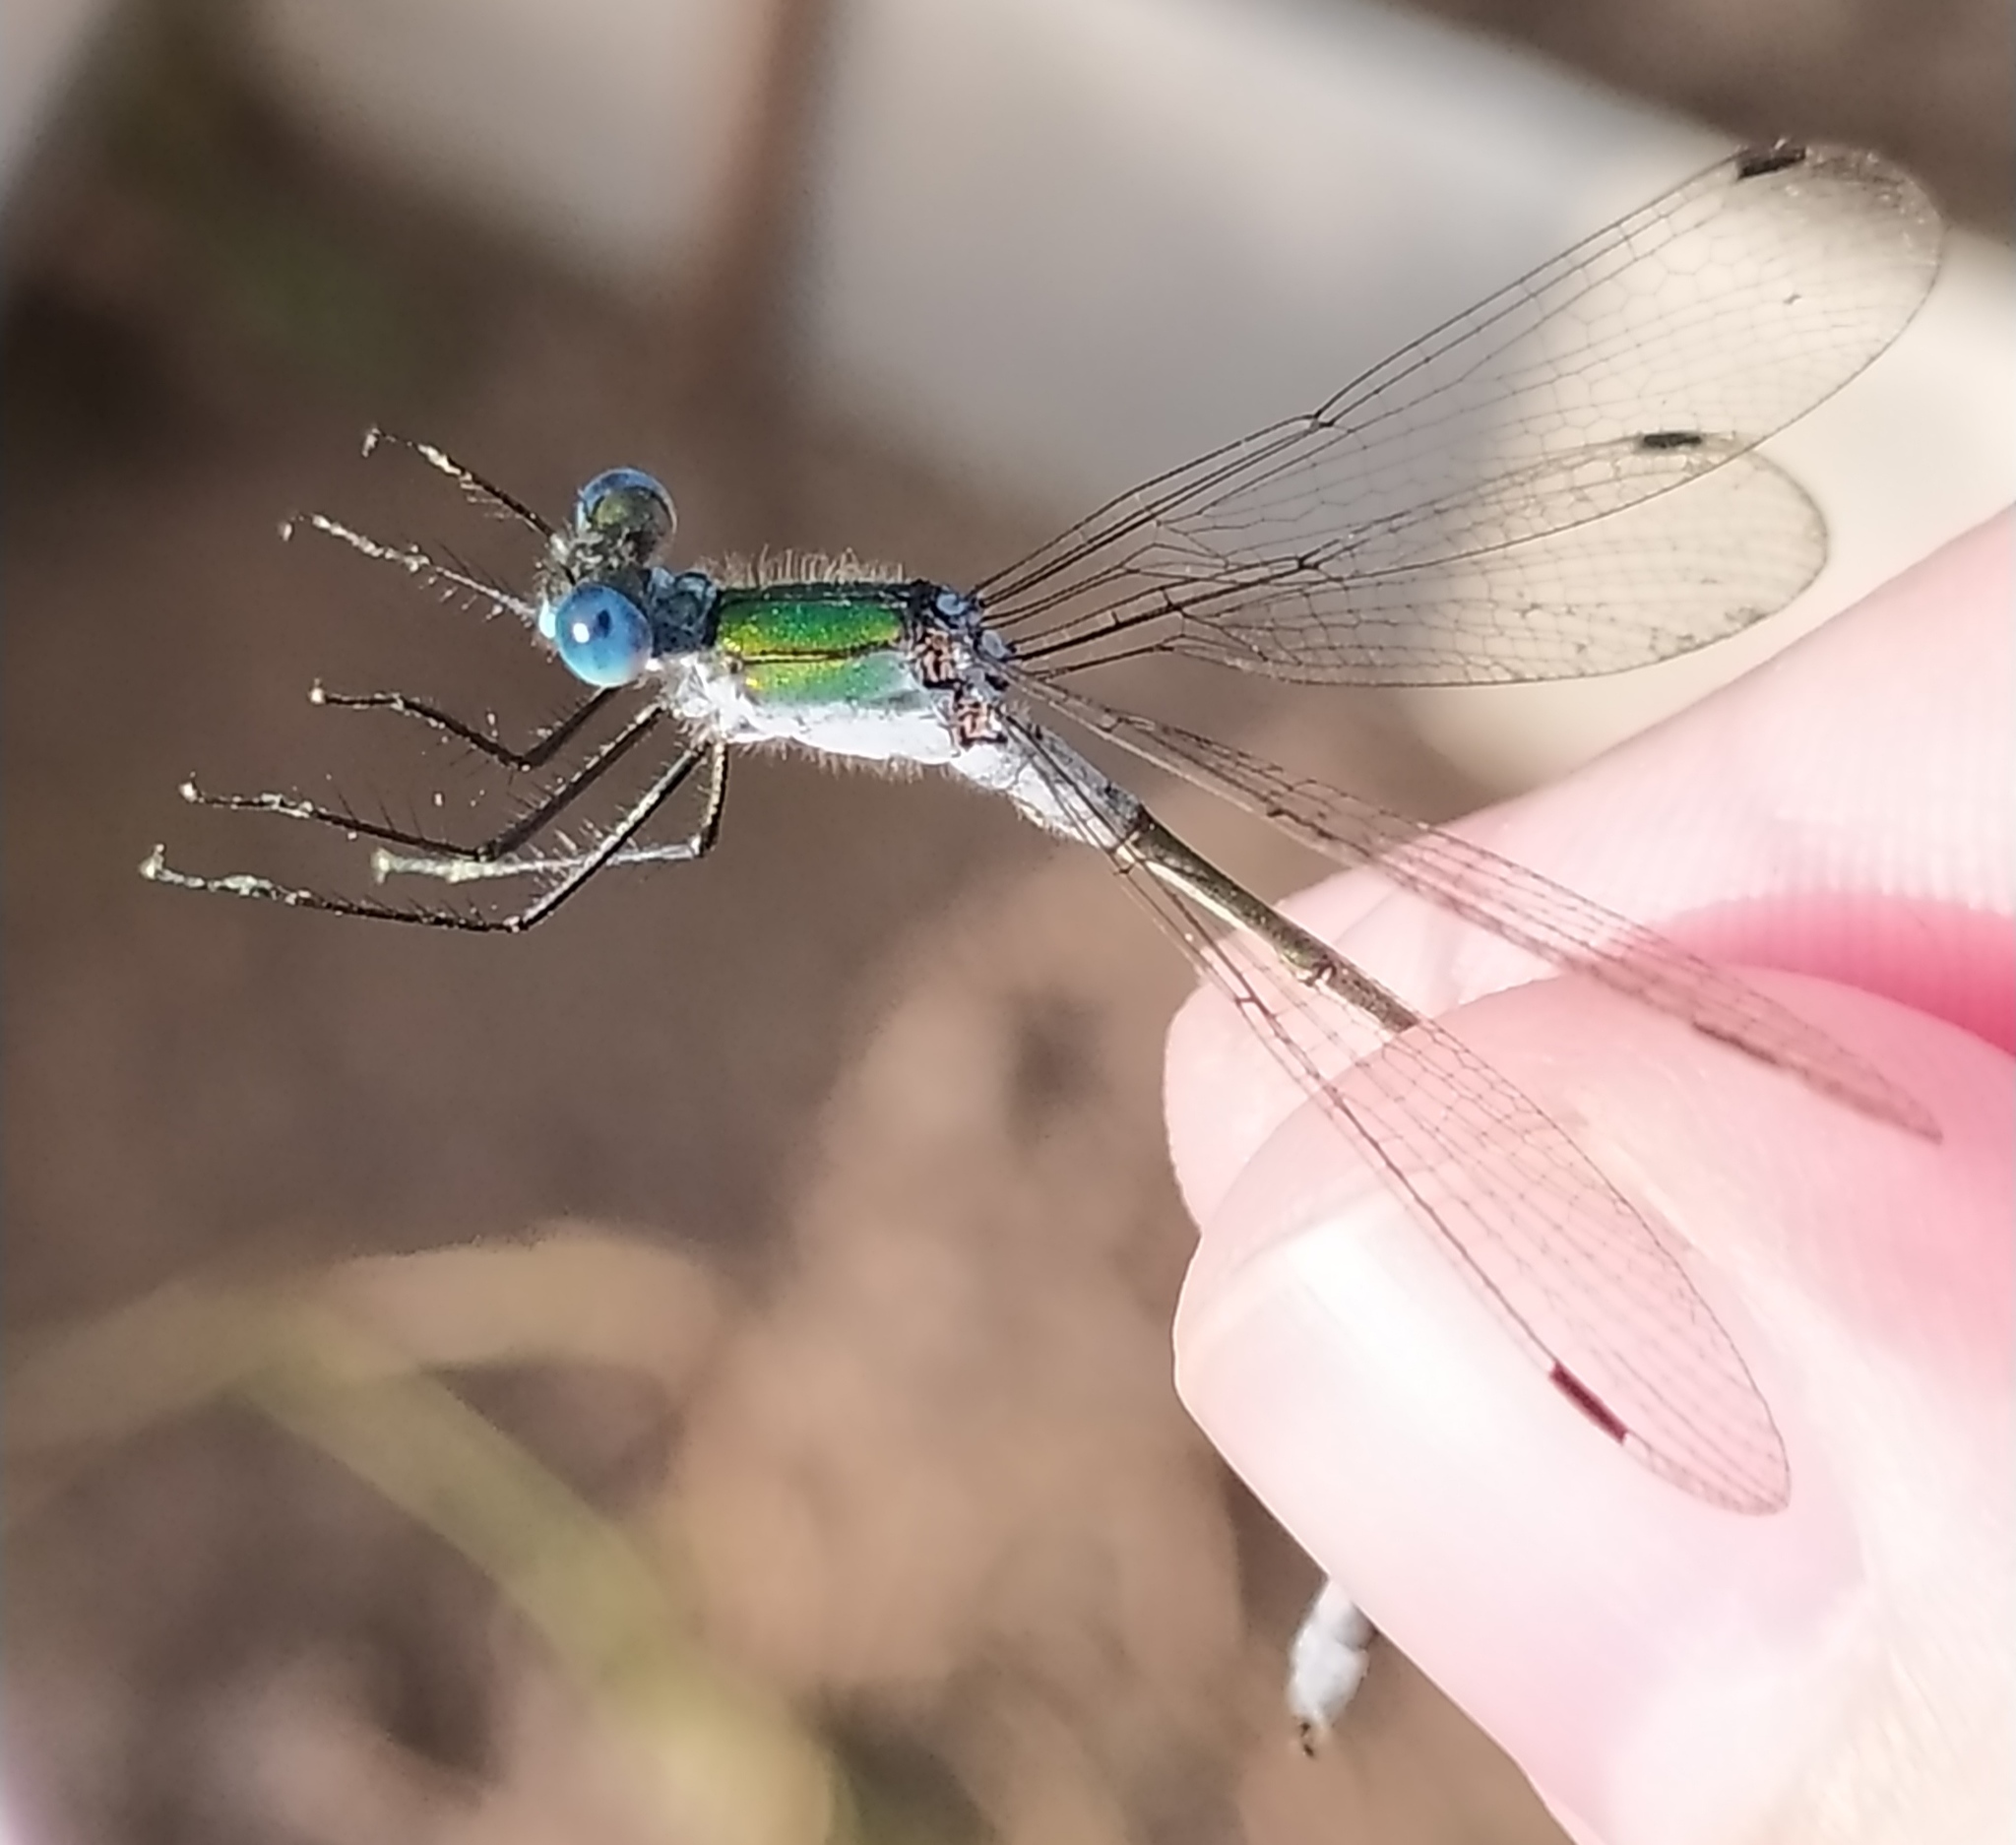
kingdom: Animalia
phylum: Arthropoda
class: Insecta
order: Odonata
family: Lestidae
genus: Lestes
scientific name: Lestes sponsa
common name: Common spreadwing
